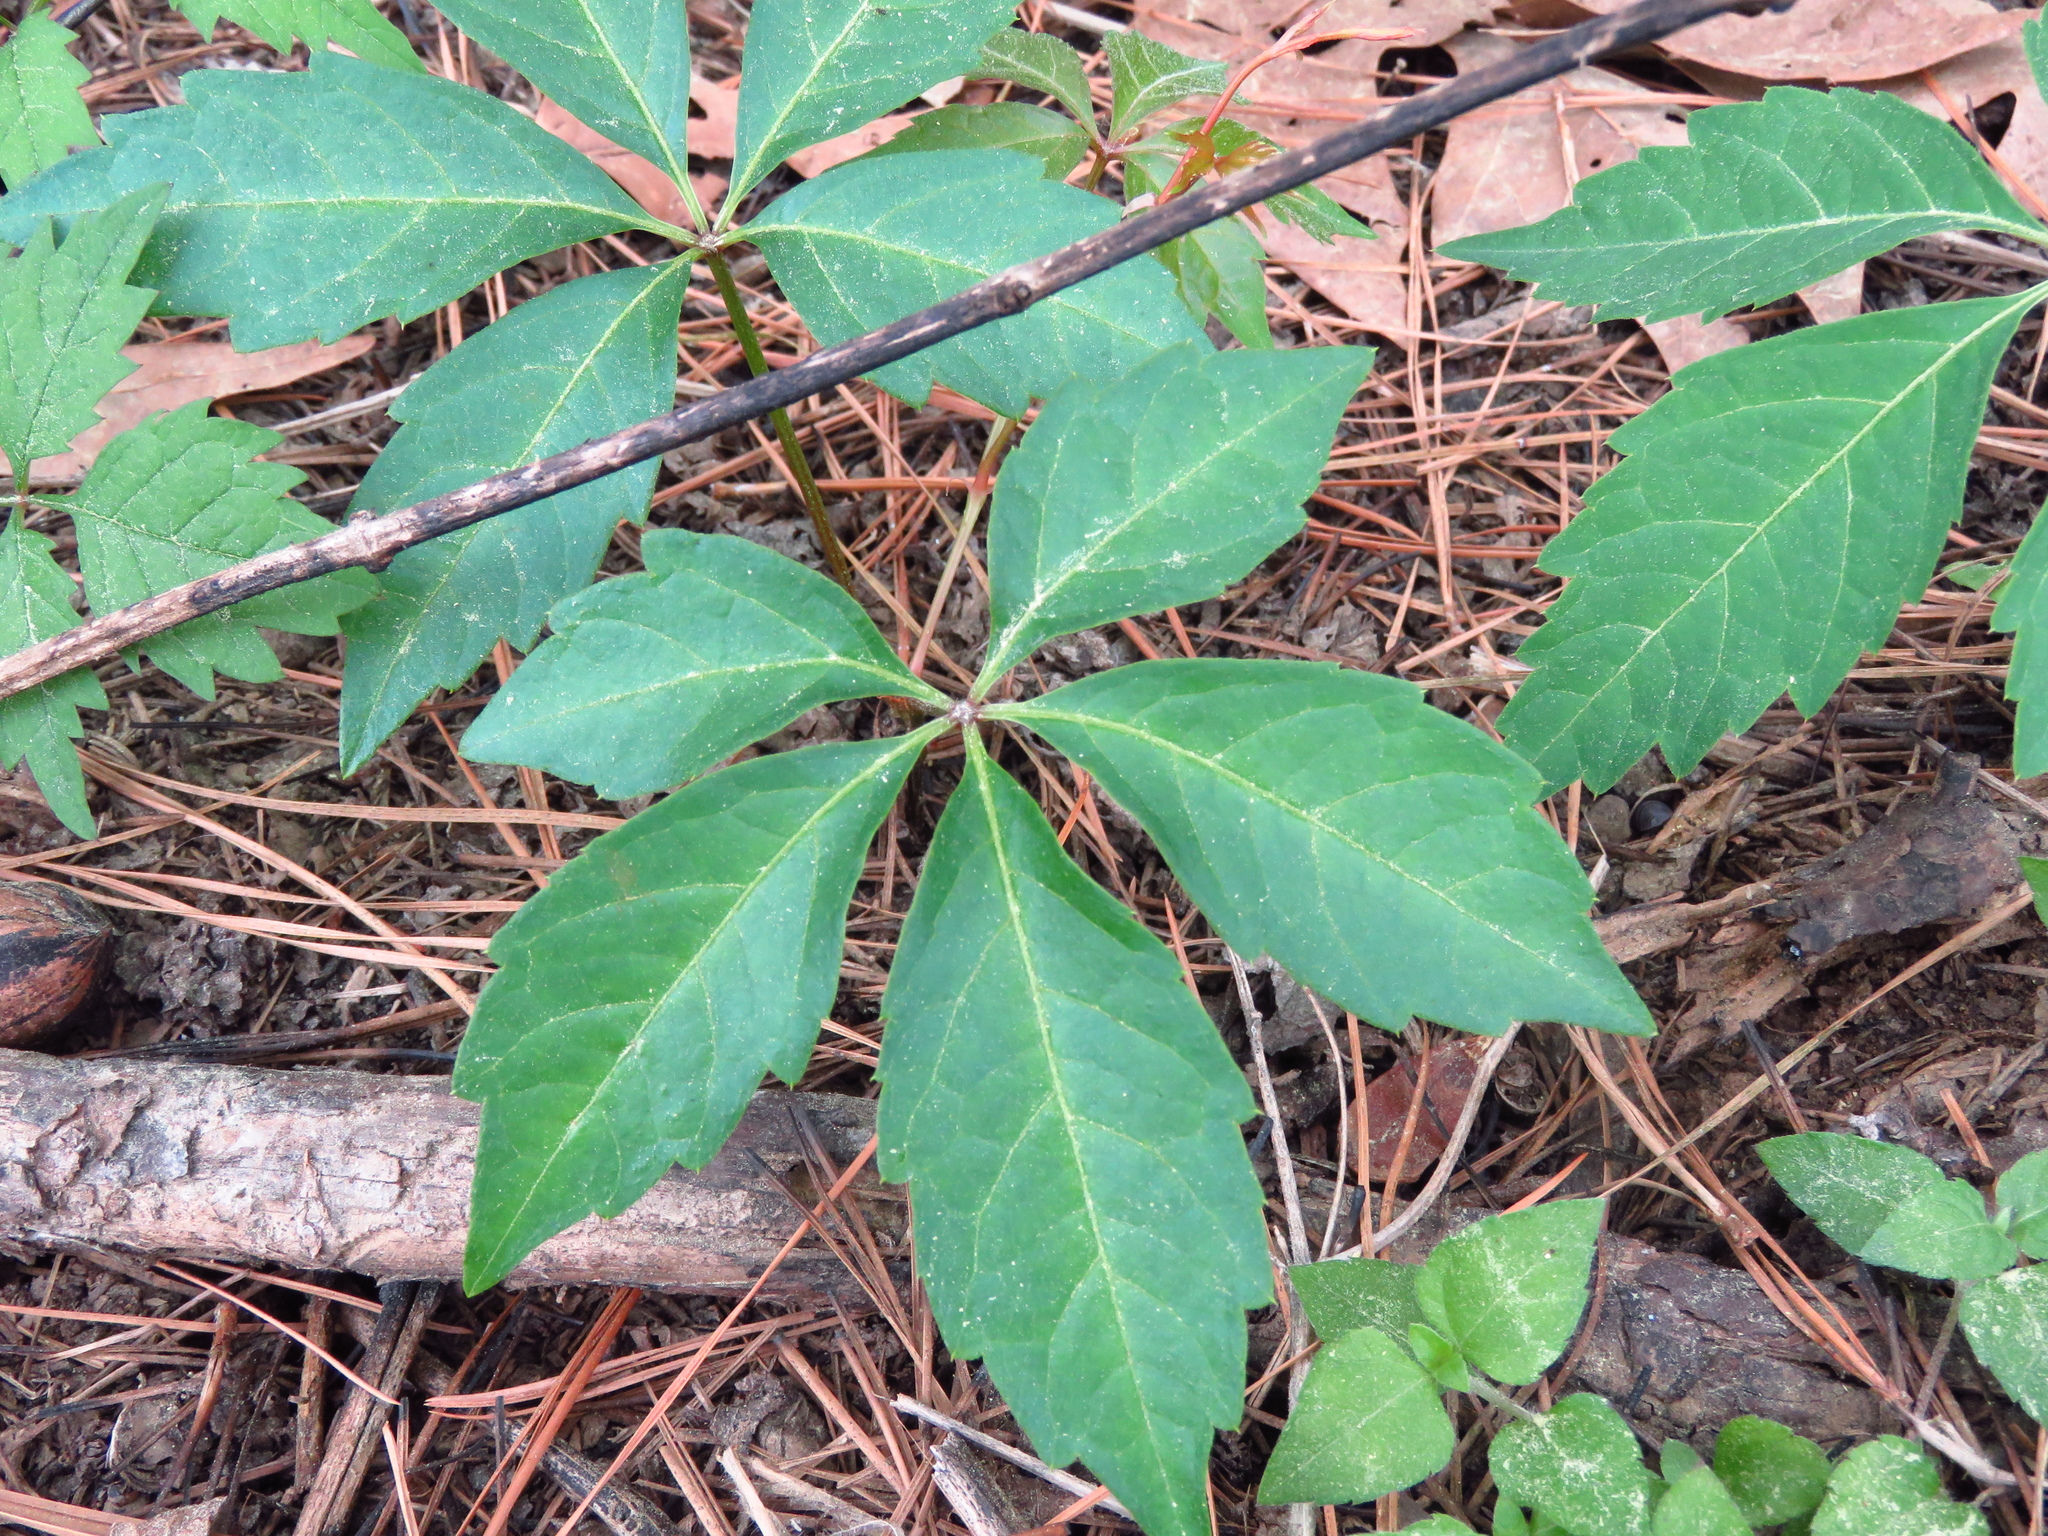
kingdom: Plantae
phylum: Tracheophyta
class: Magnoliopsida
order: Vitales
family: Vitaceae
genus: Parthenocissus
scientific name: Parthenocissus quinquefolia
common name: Virginia-creeper
